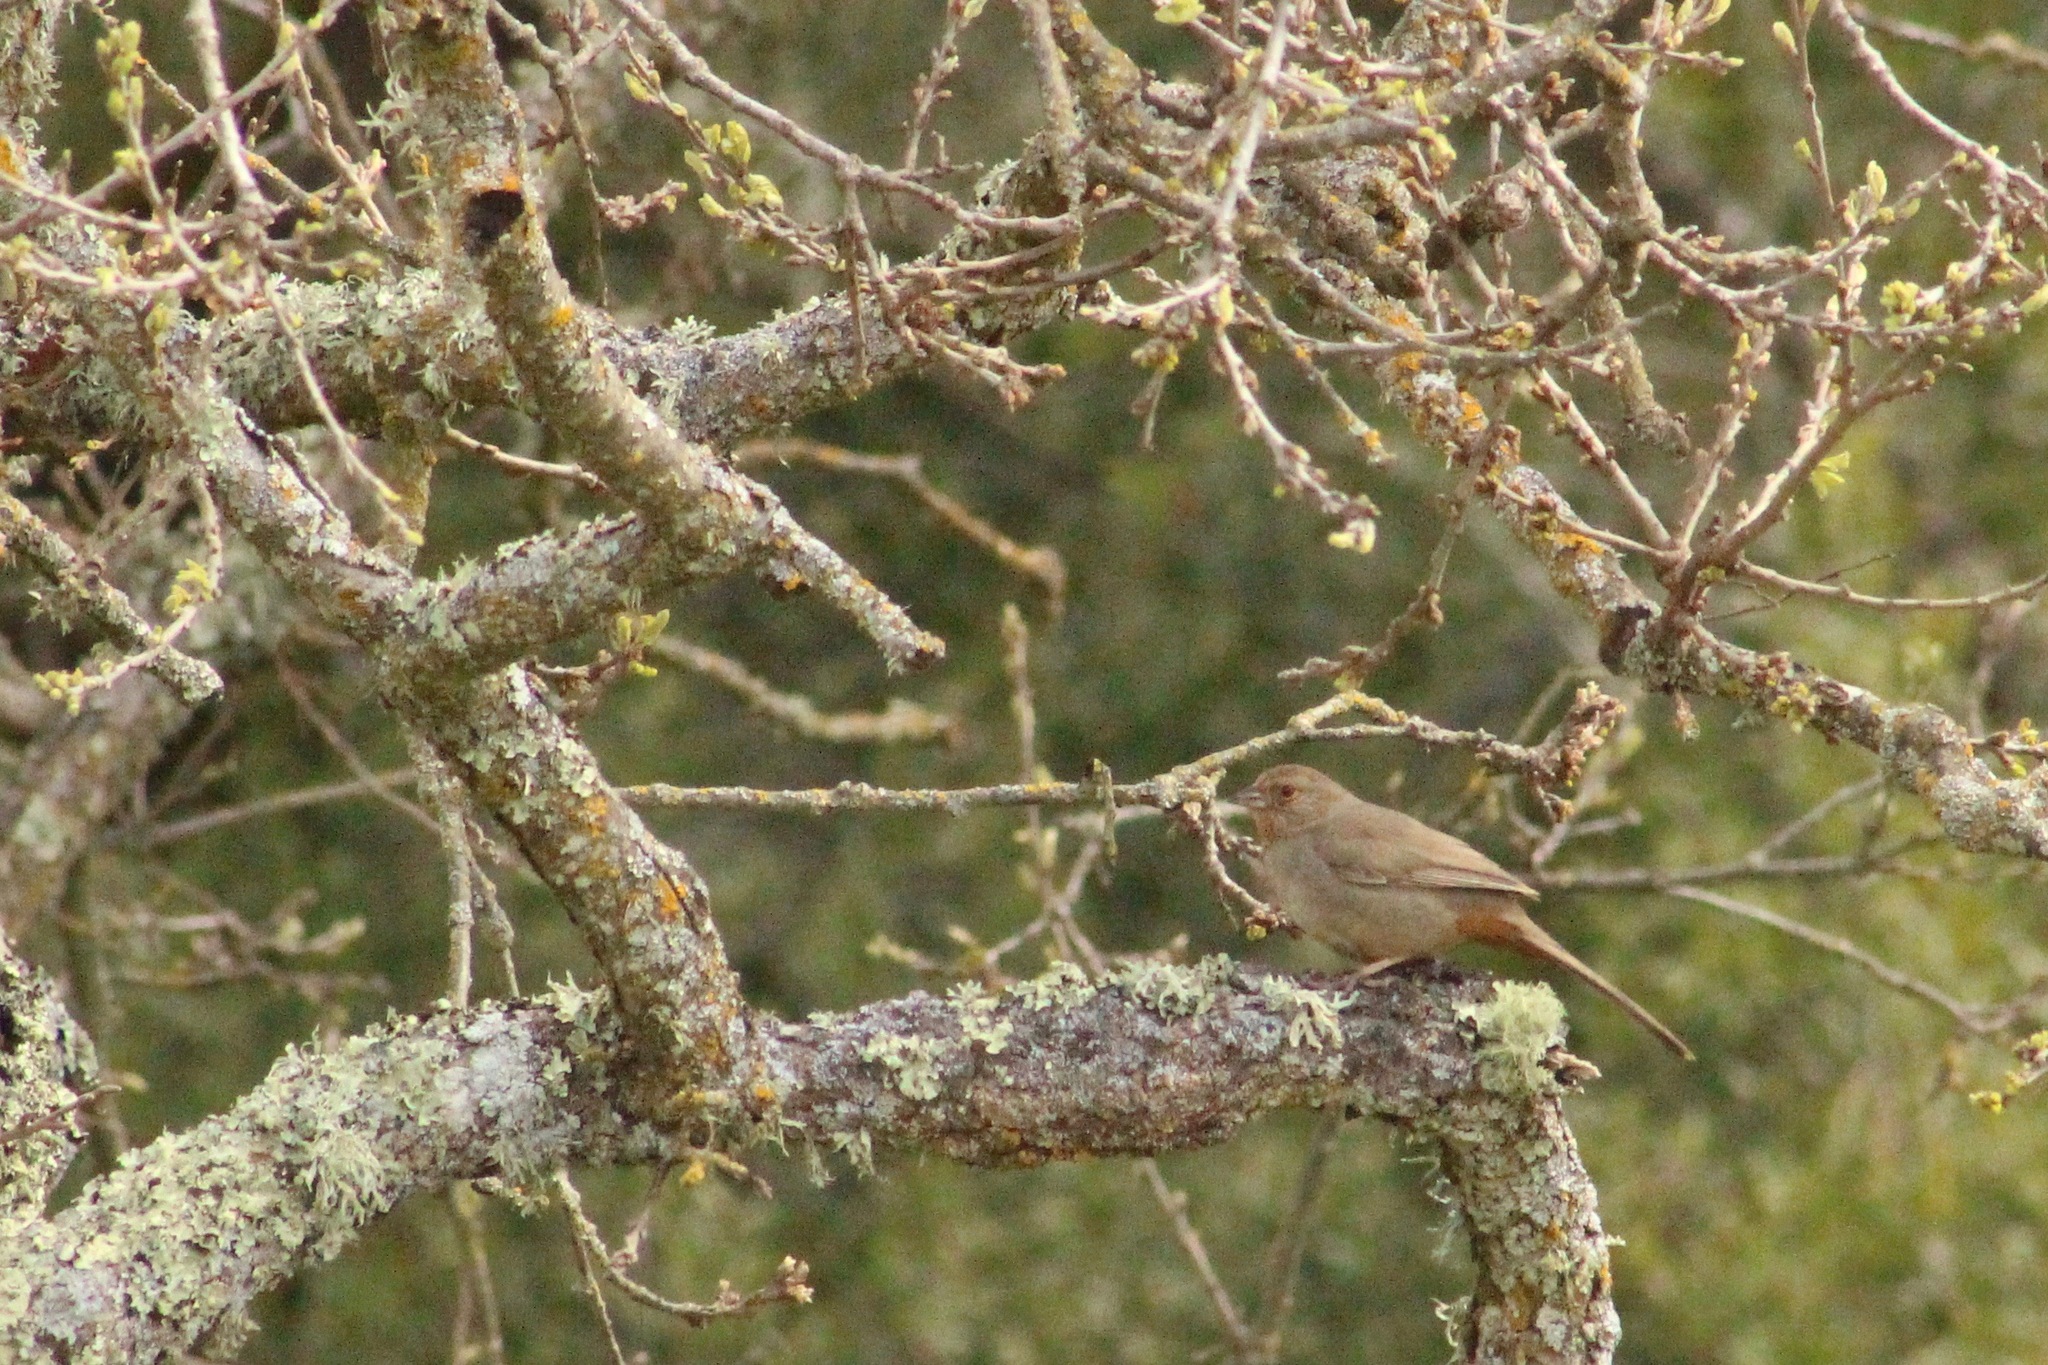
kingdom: Animalia
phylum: Chordata
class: Aves
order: Passeriformes
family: Passerellidae
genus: Melozone
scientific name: Melozone crissalis
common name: California towhee
